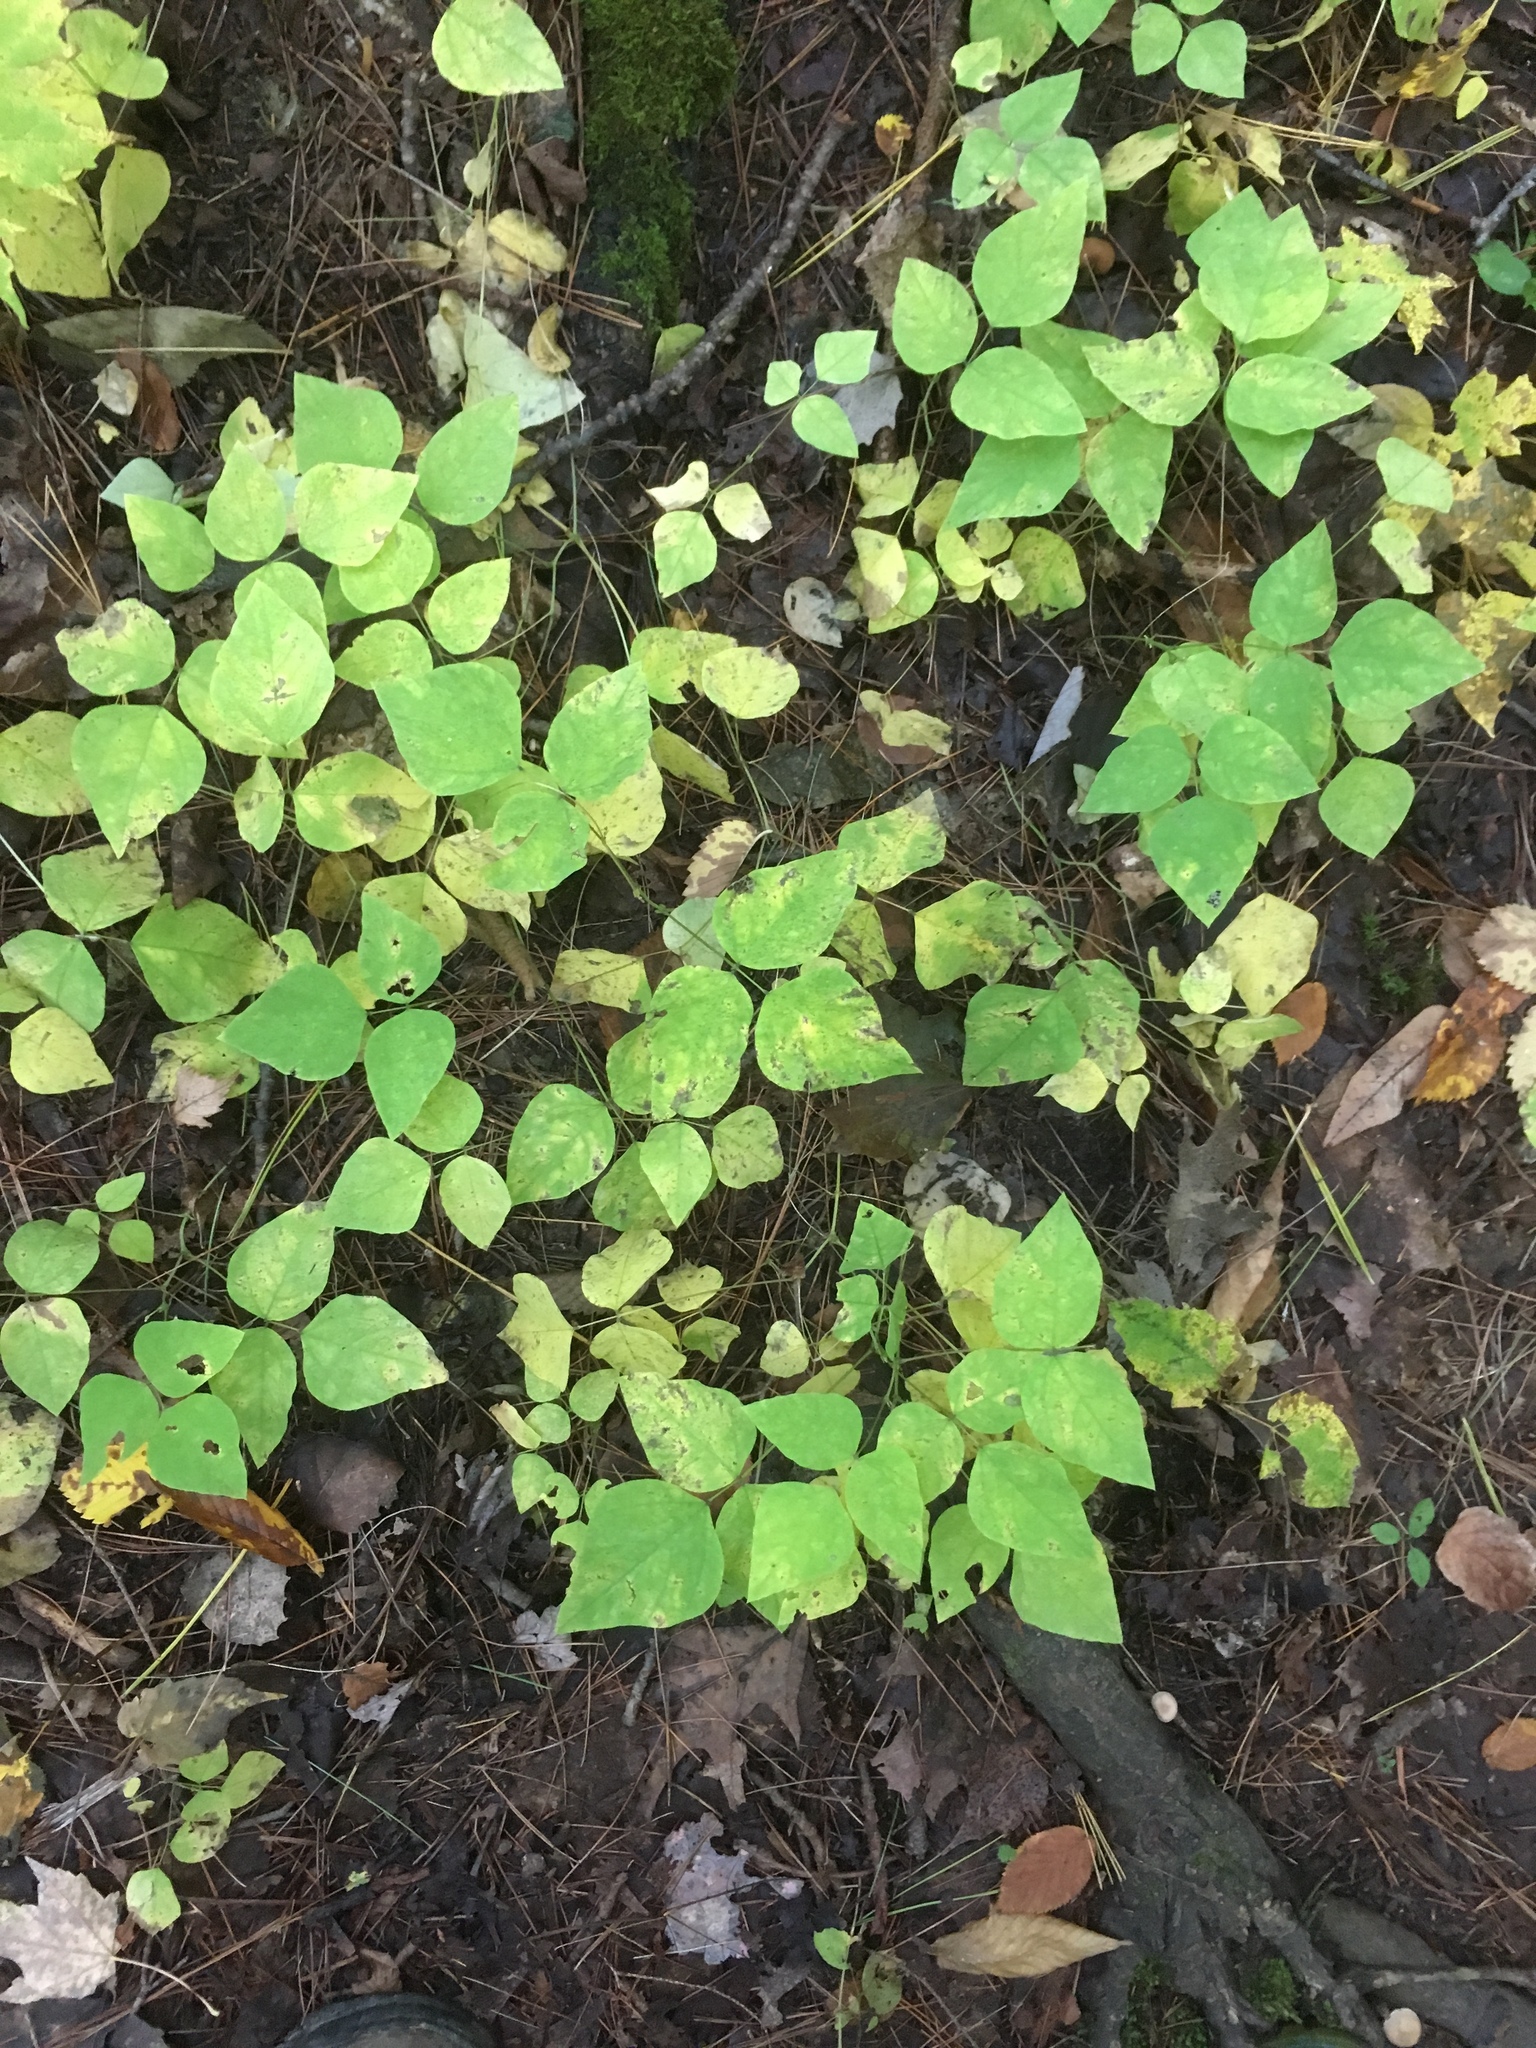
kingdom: Plantae
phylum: Tracheophyta
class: Magnoliopsida
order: Fabales
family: Fabaceae
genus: Amphicarpaea
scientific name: Amphicarpaea bracteata
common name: American hog peanut
